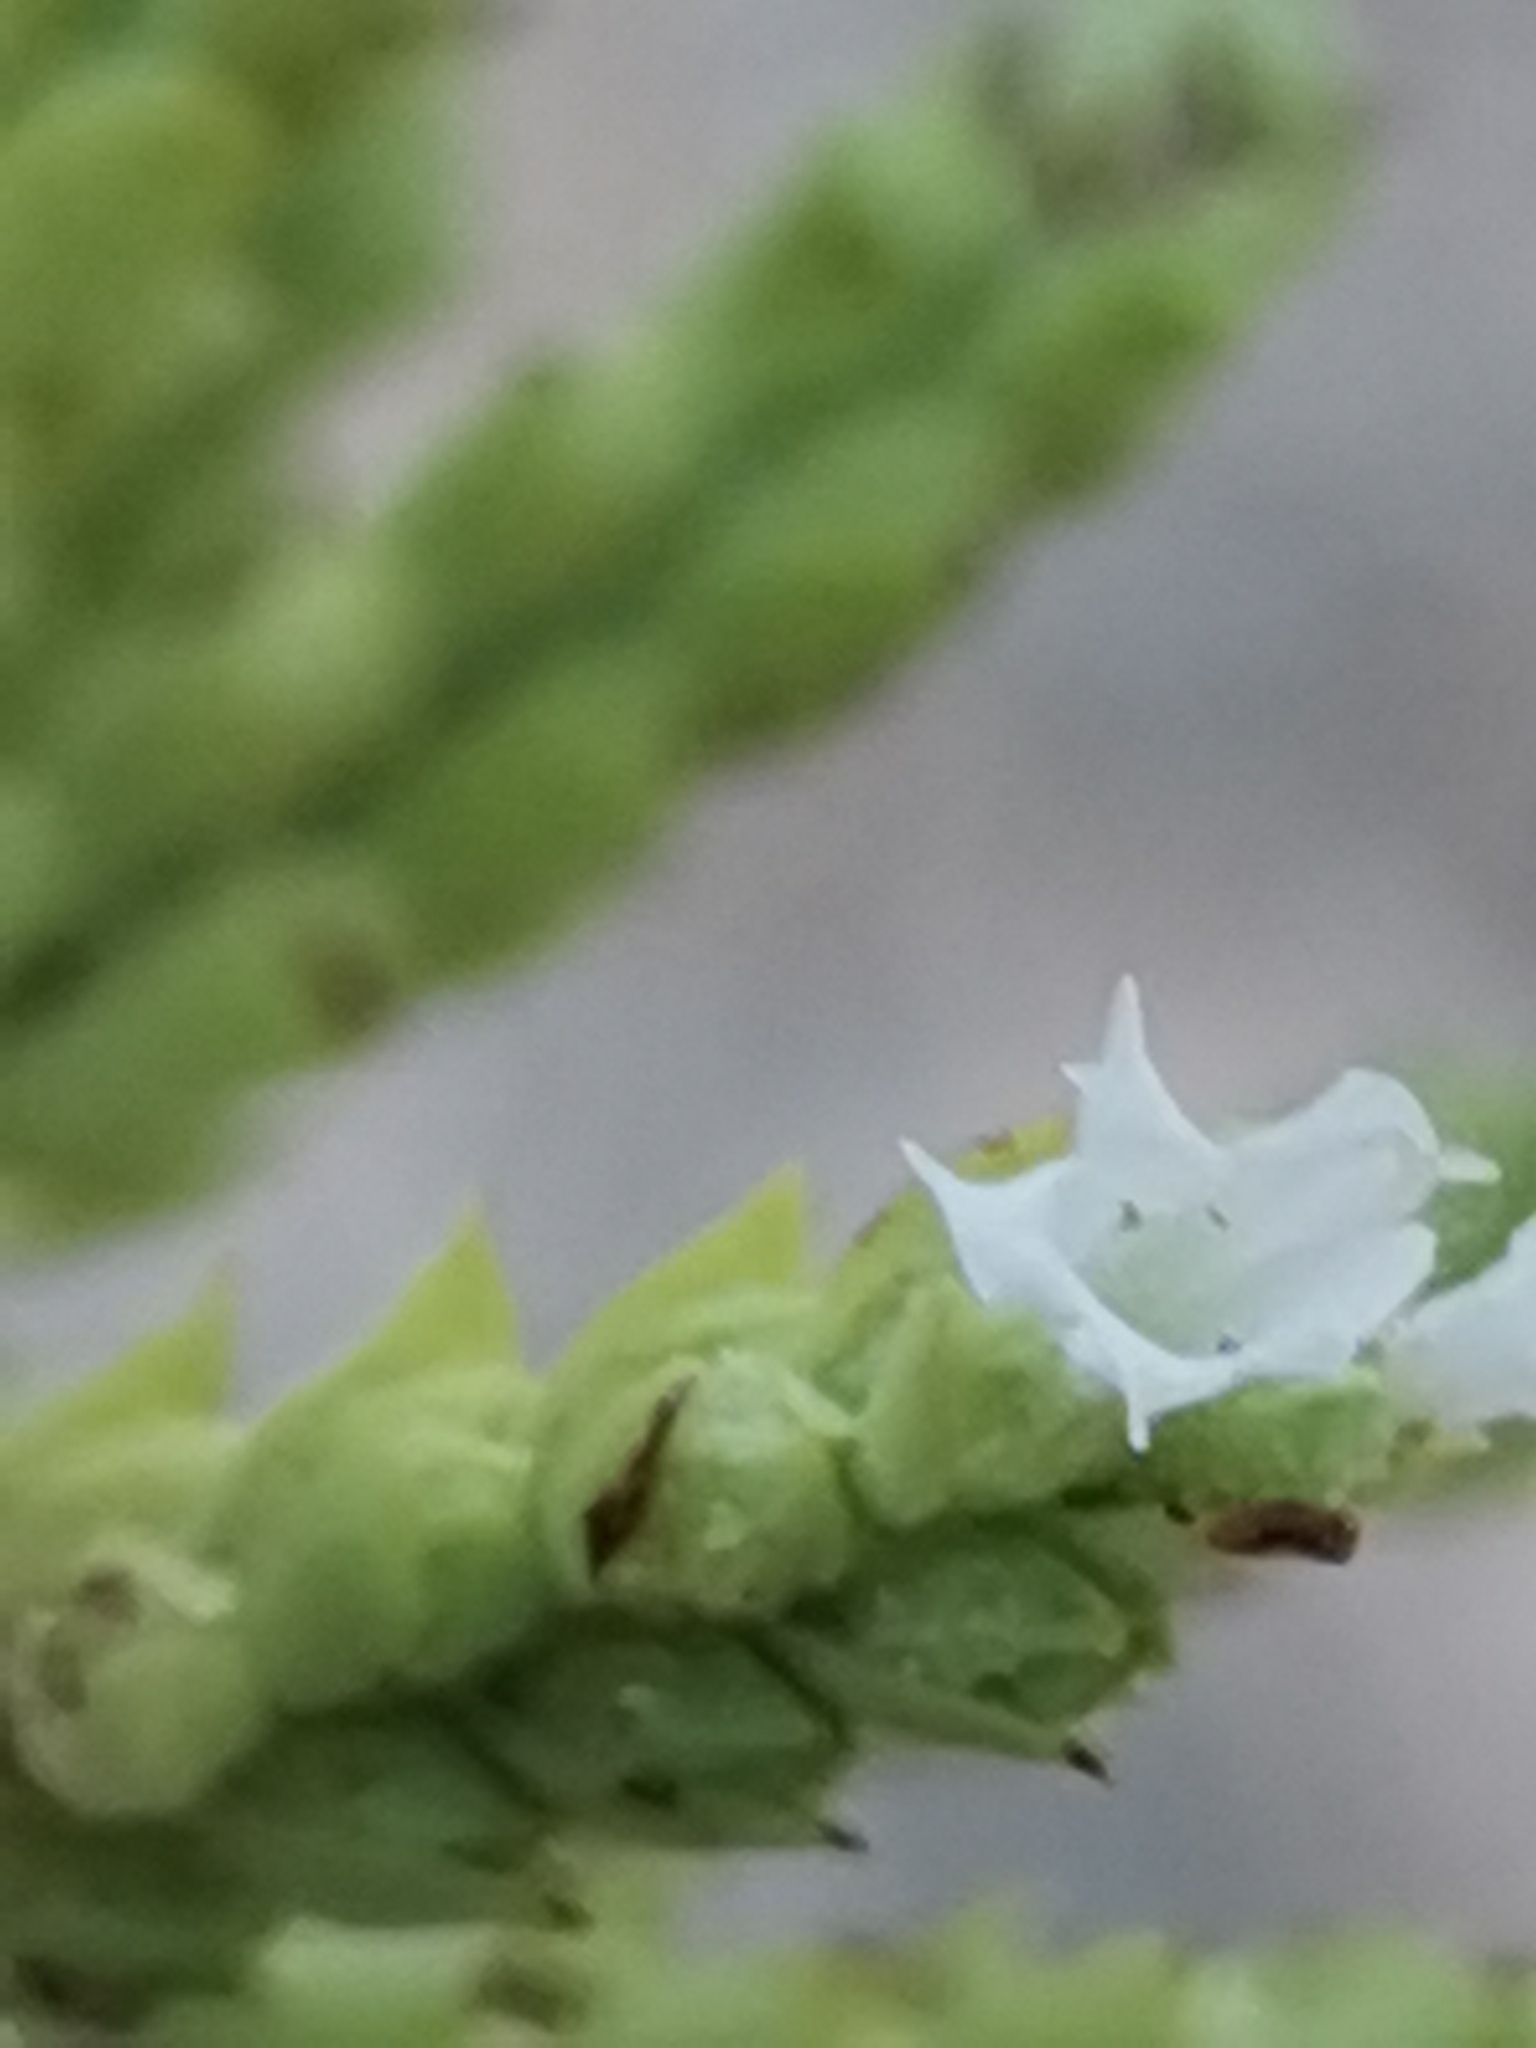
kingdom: Plantae
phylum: Tracheophyta
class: Magnoliopsida
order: Lamiales
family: Lamiaceae
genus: Origanum
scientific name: Origanum vulgare
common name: Wild marjoram
